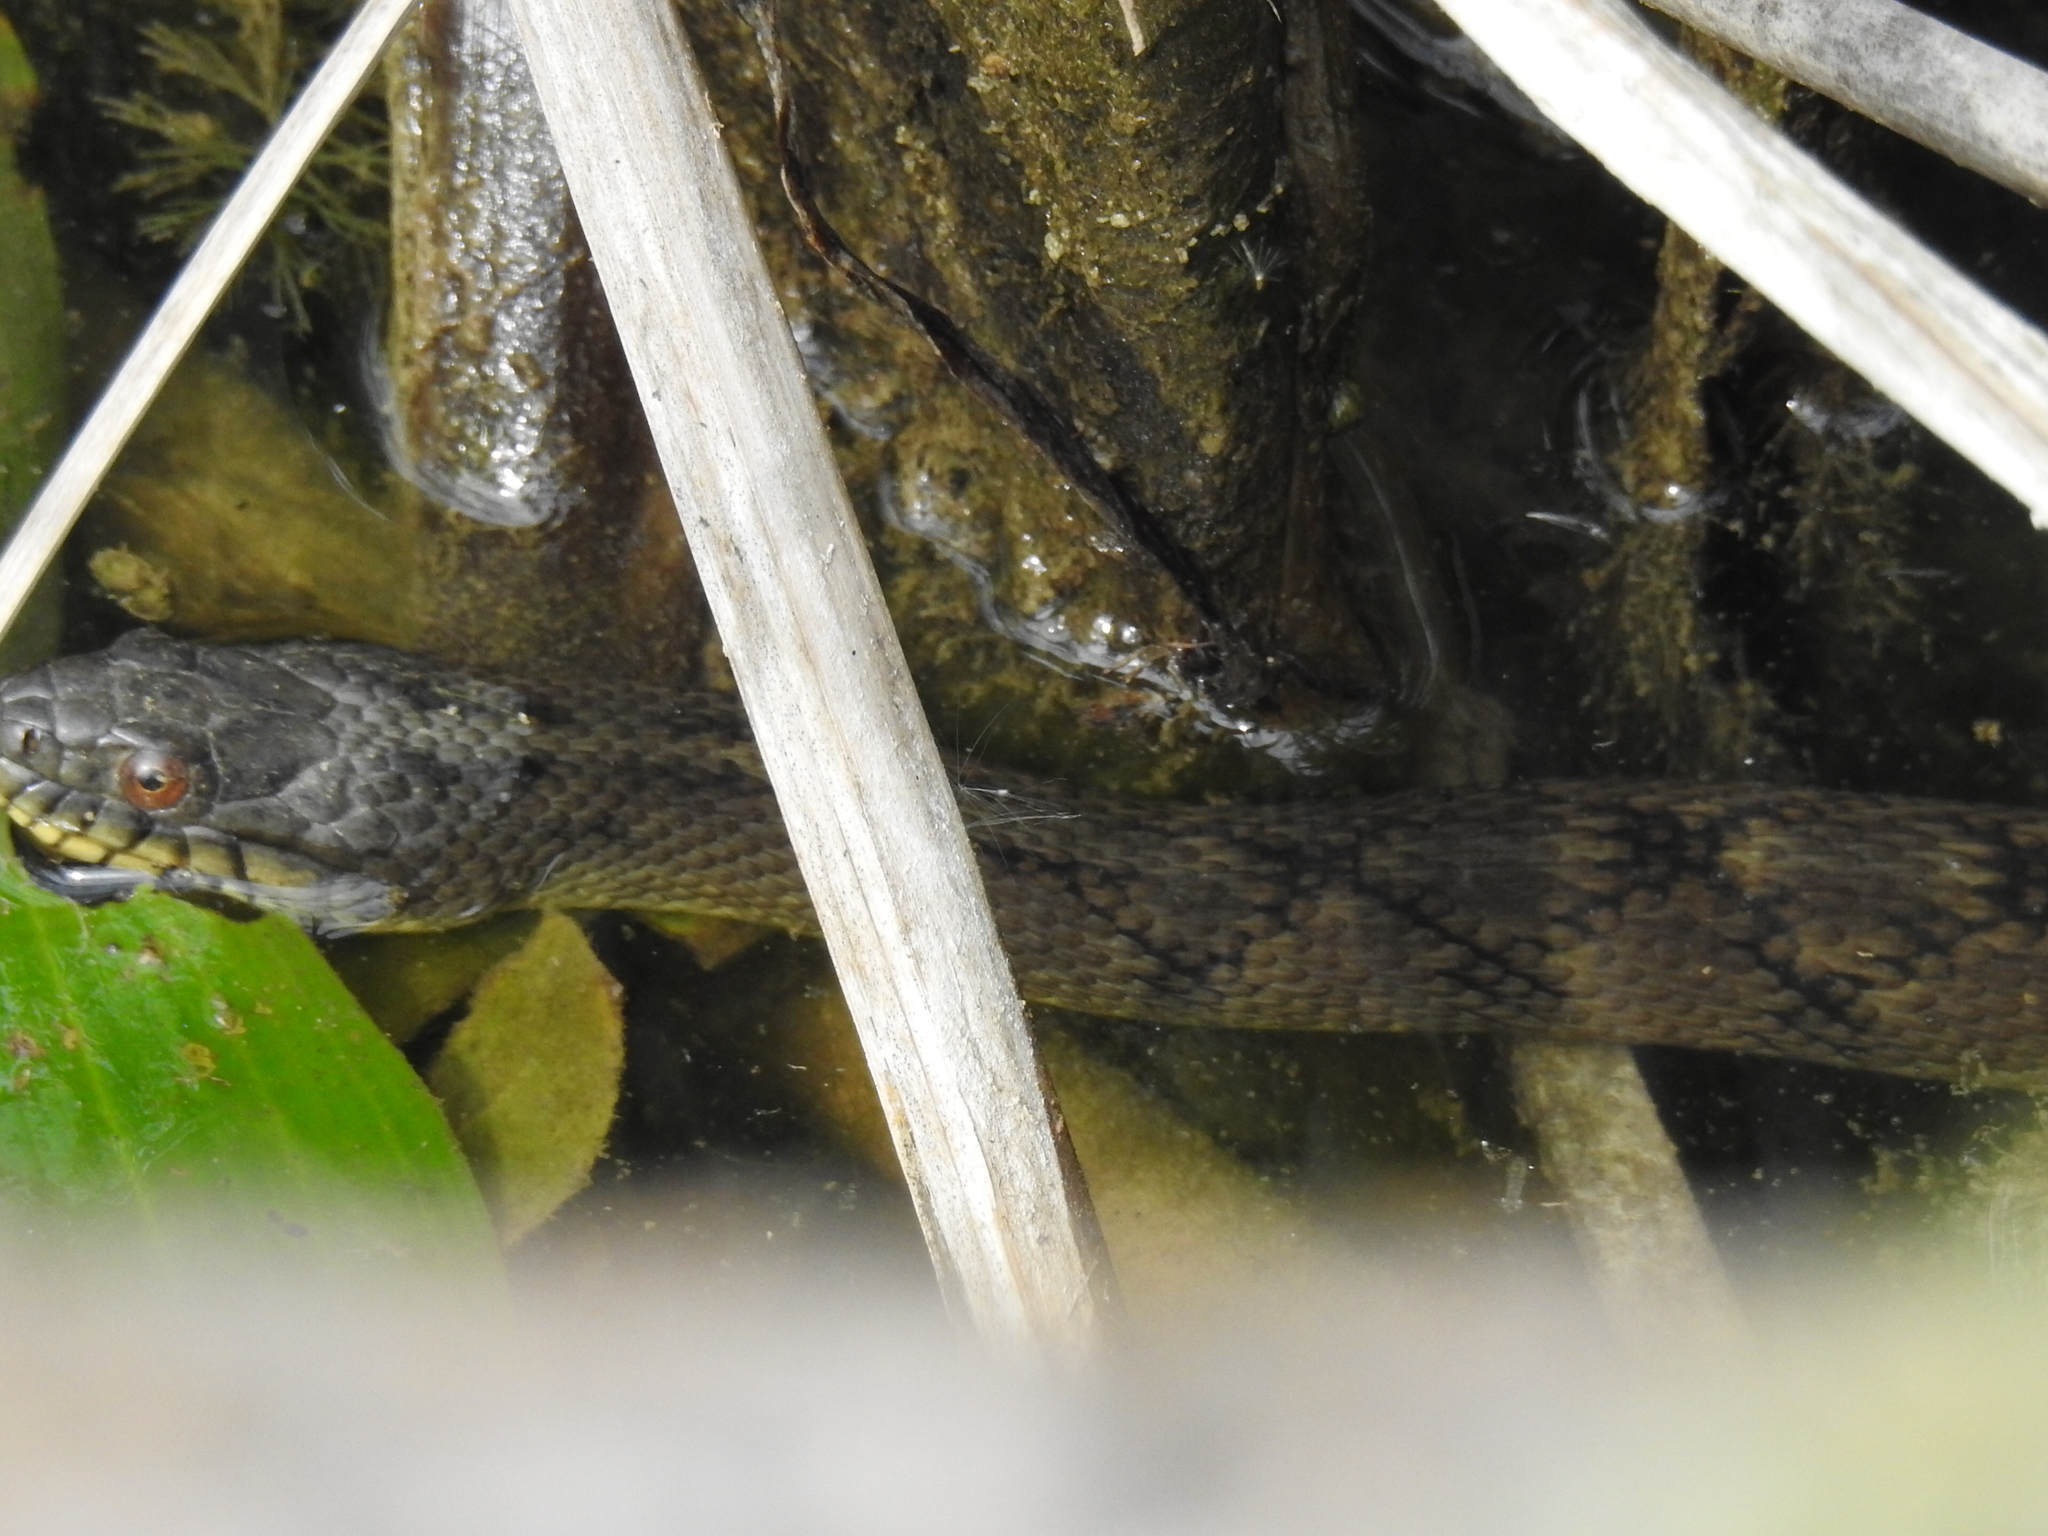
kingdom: Animalia
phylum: Chordata
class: Squamata
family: Colubridae
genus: Nerodia
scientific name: Nerodia rhombifer
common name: Diamondback water snake
